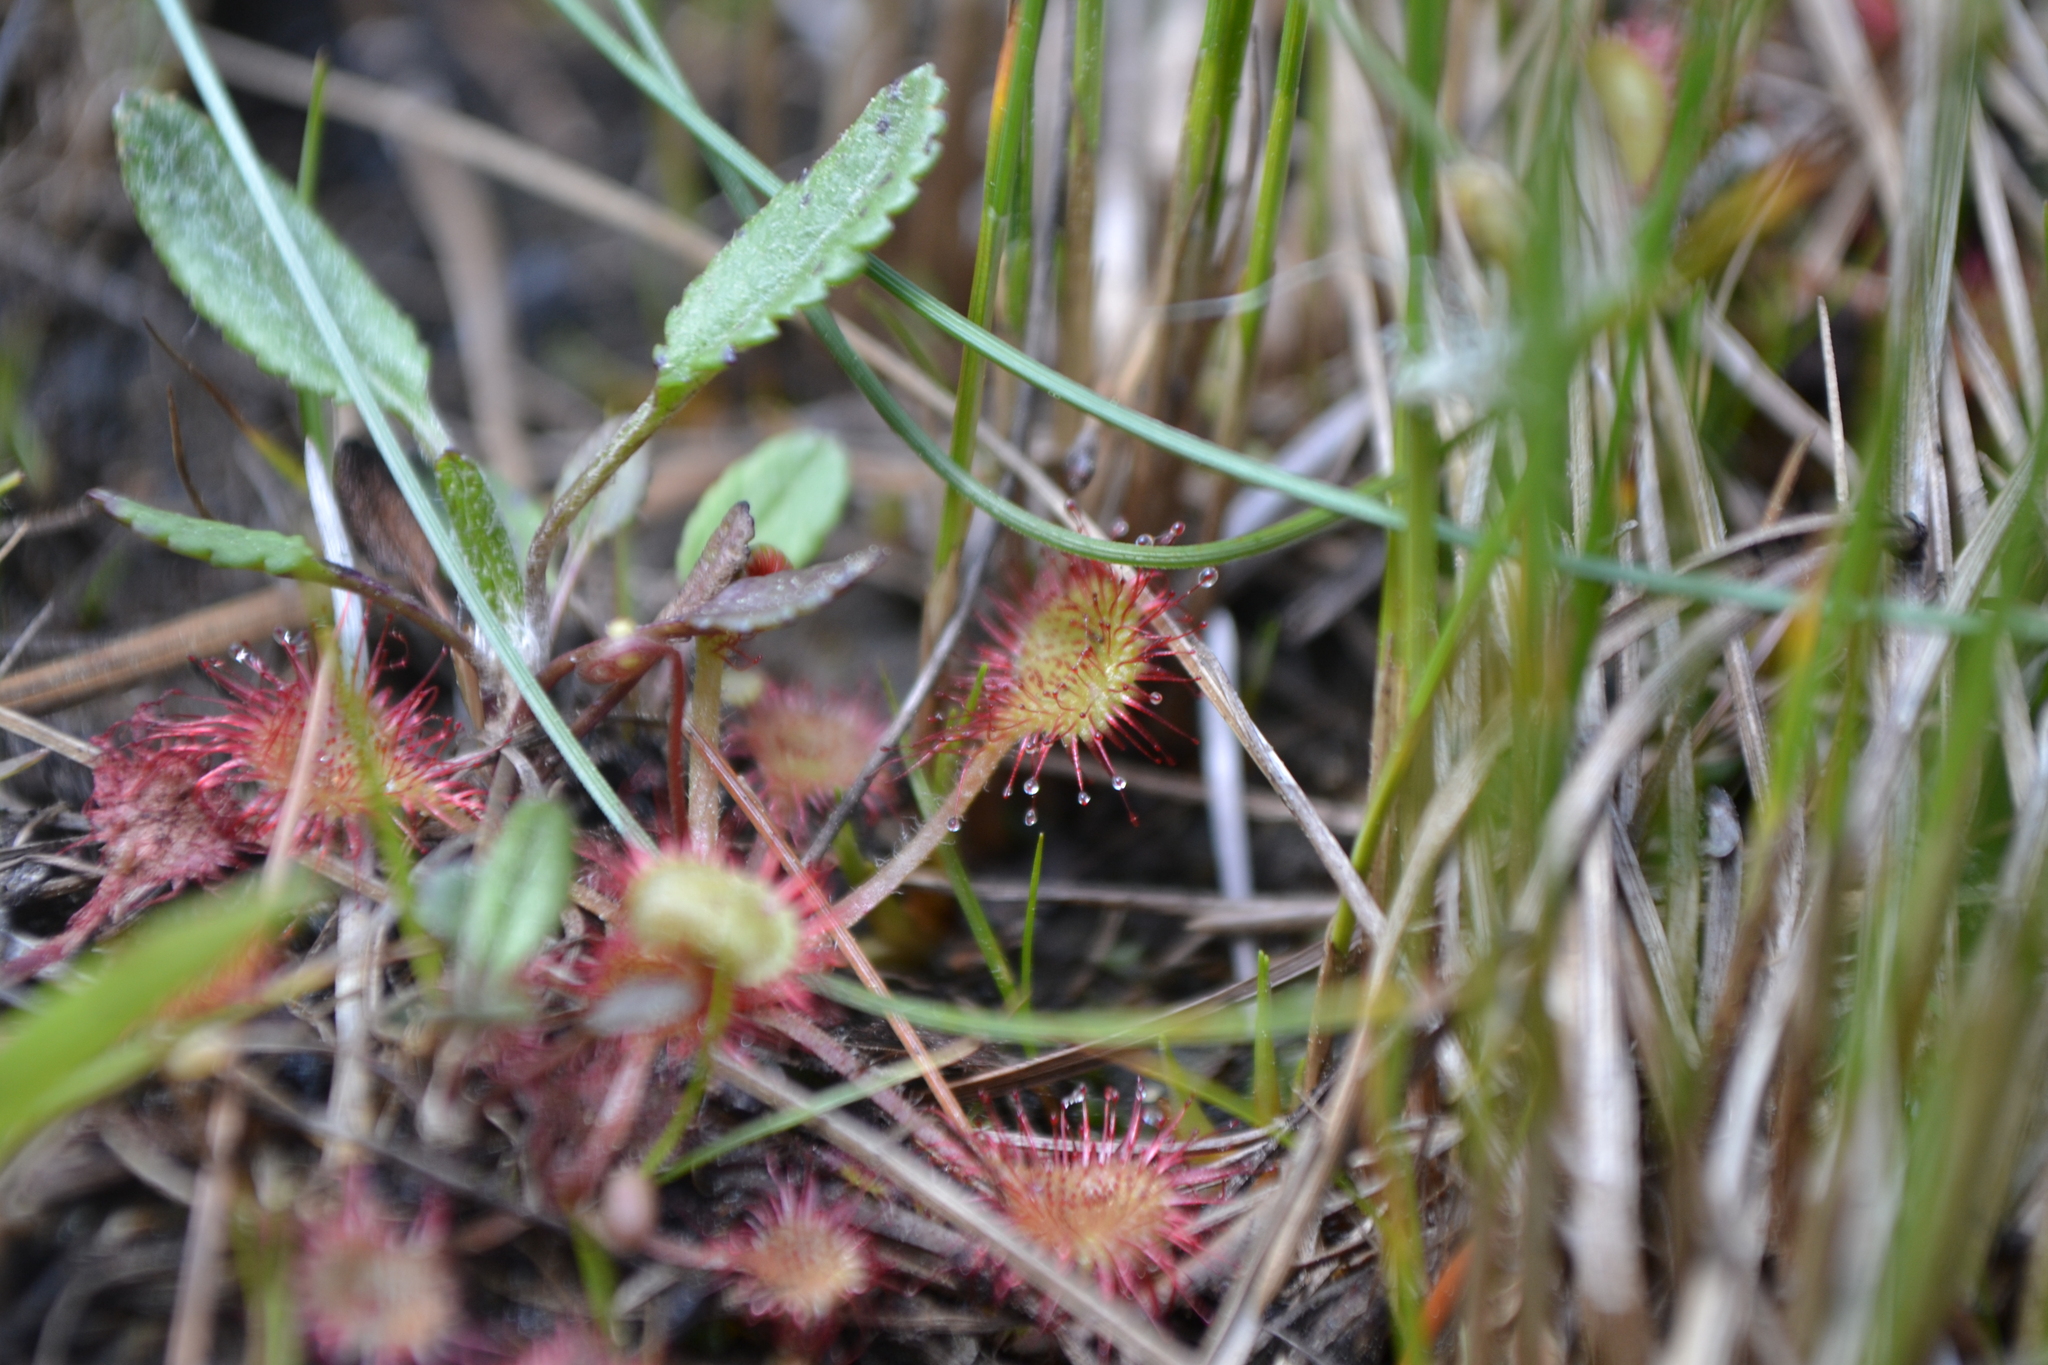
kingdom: Plantae
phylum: Tracheophyta
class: Magnoliopsida
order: Caryophyllales
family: Droseraceae
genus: Drosera
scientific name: Drosera rotundifolia
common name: Round-leaved sundew
